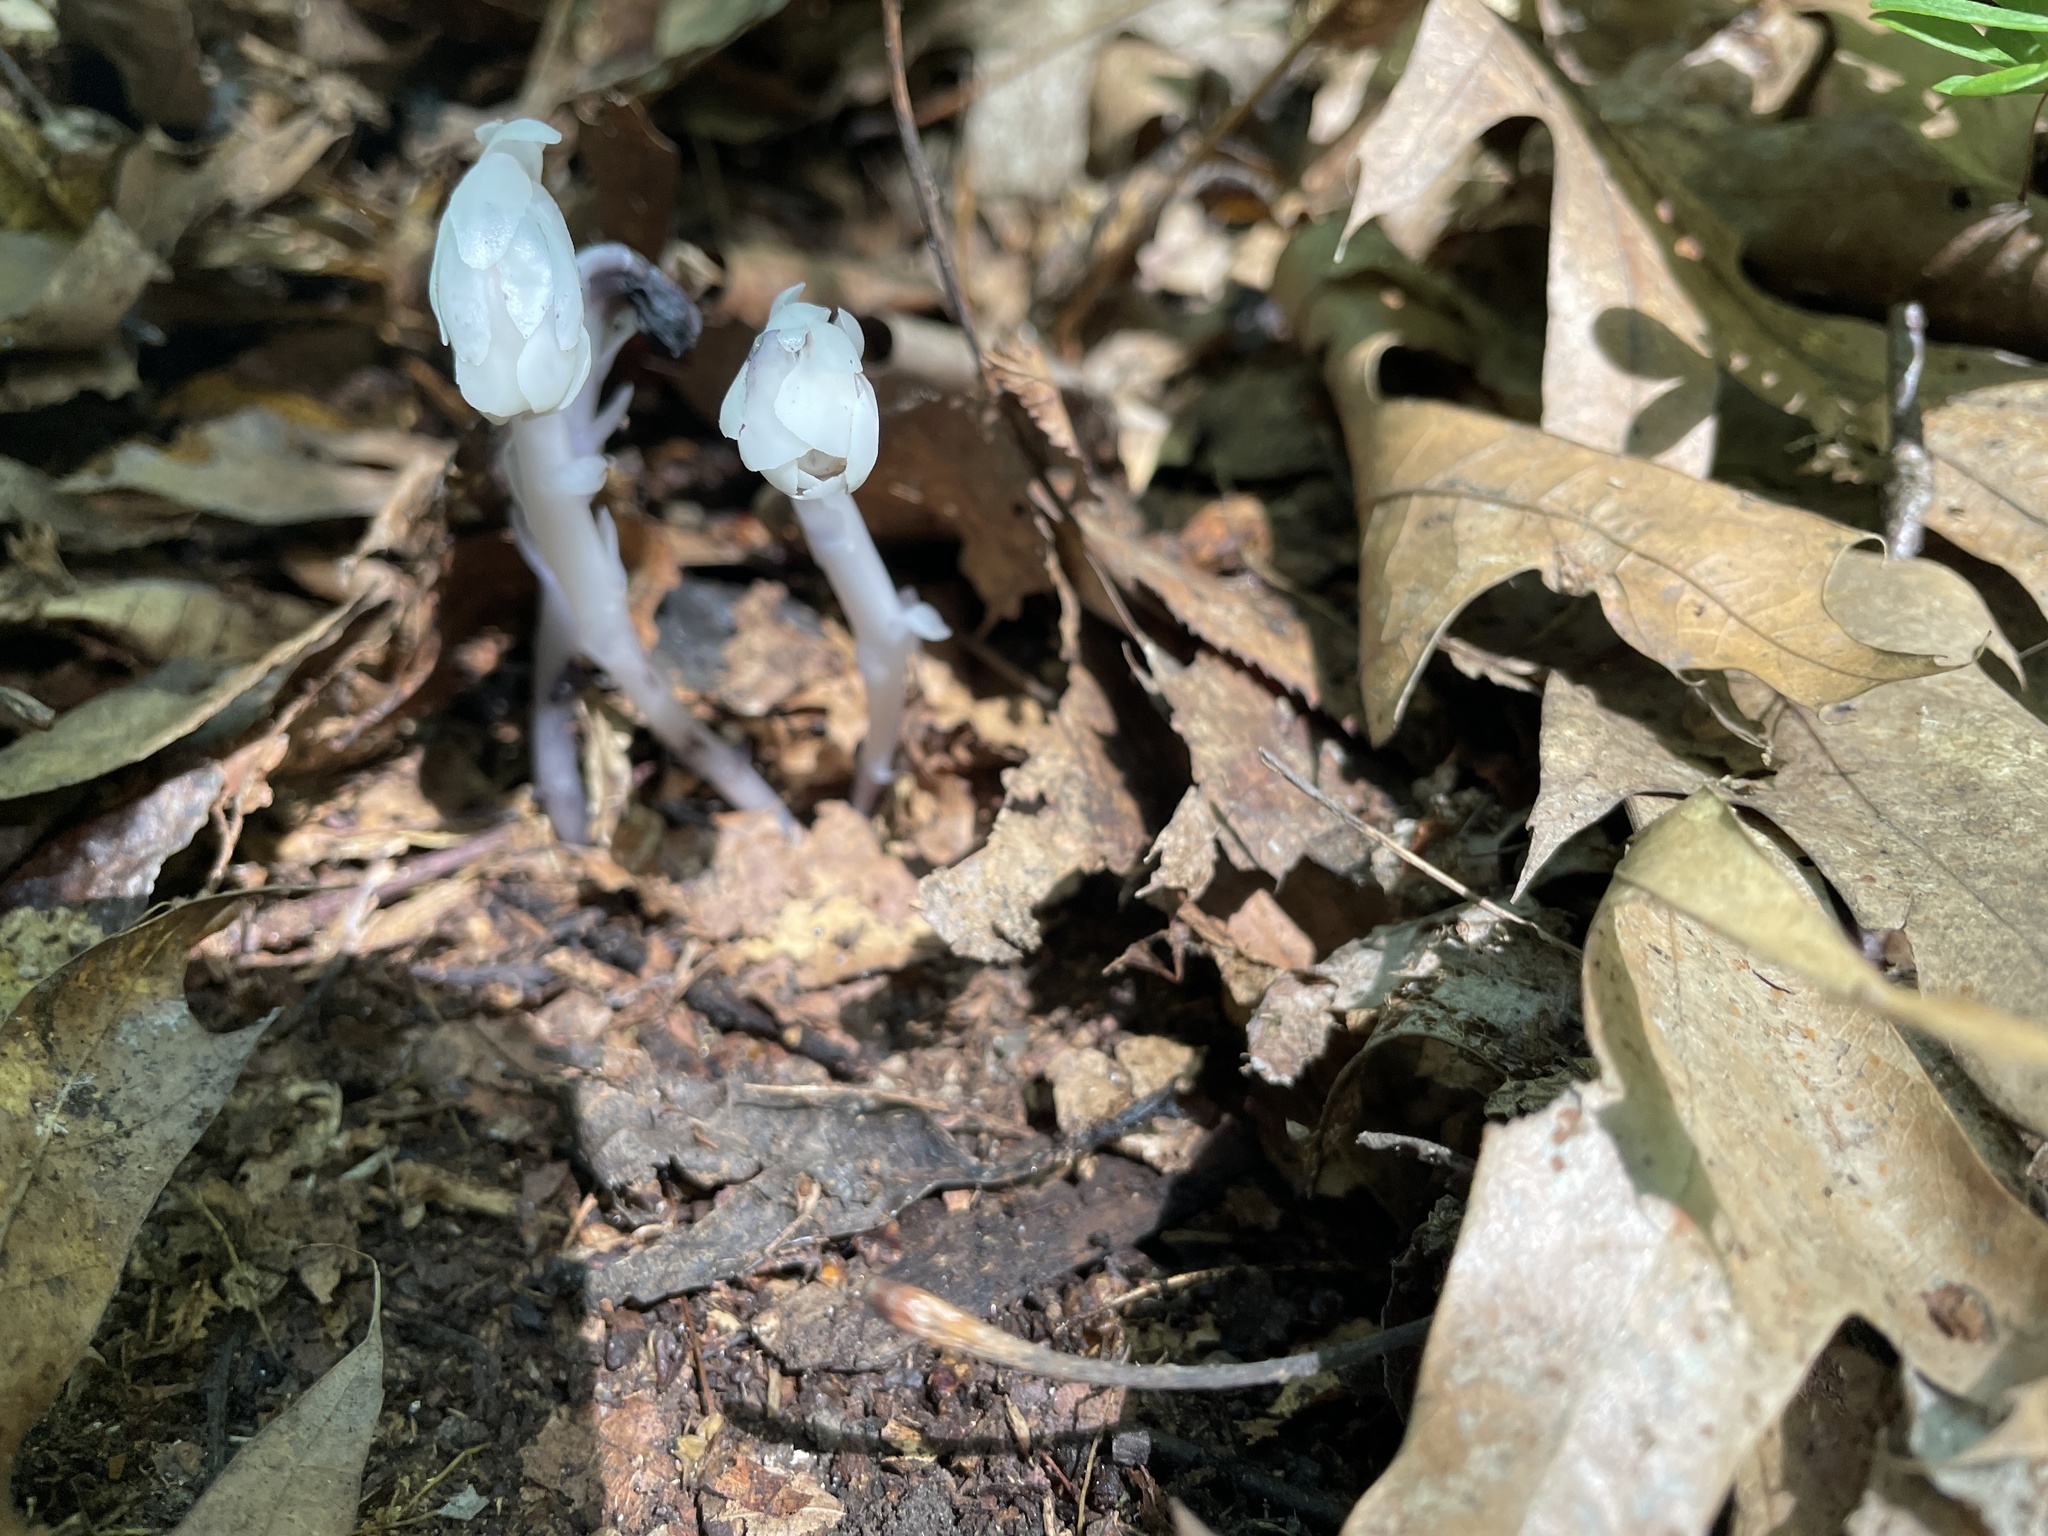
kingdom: Plantae
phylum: Tracheophyta
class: Magnoliopsida
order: Ericales
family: Ericaceae
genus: Monotropa
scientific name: Monotropa uniflora
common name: Convulsion root
